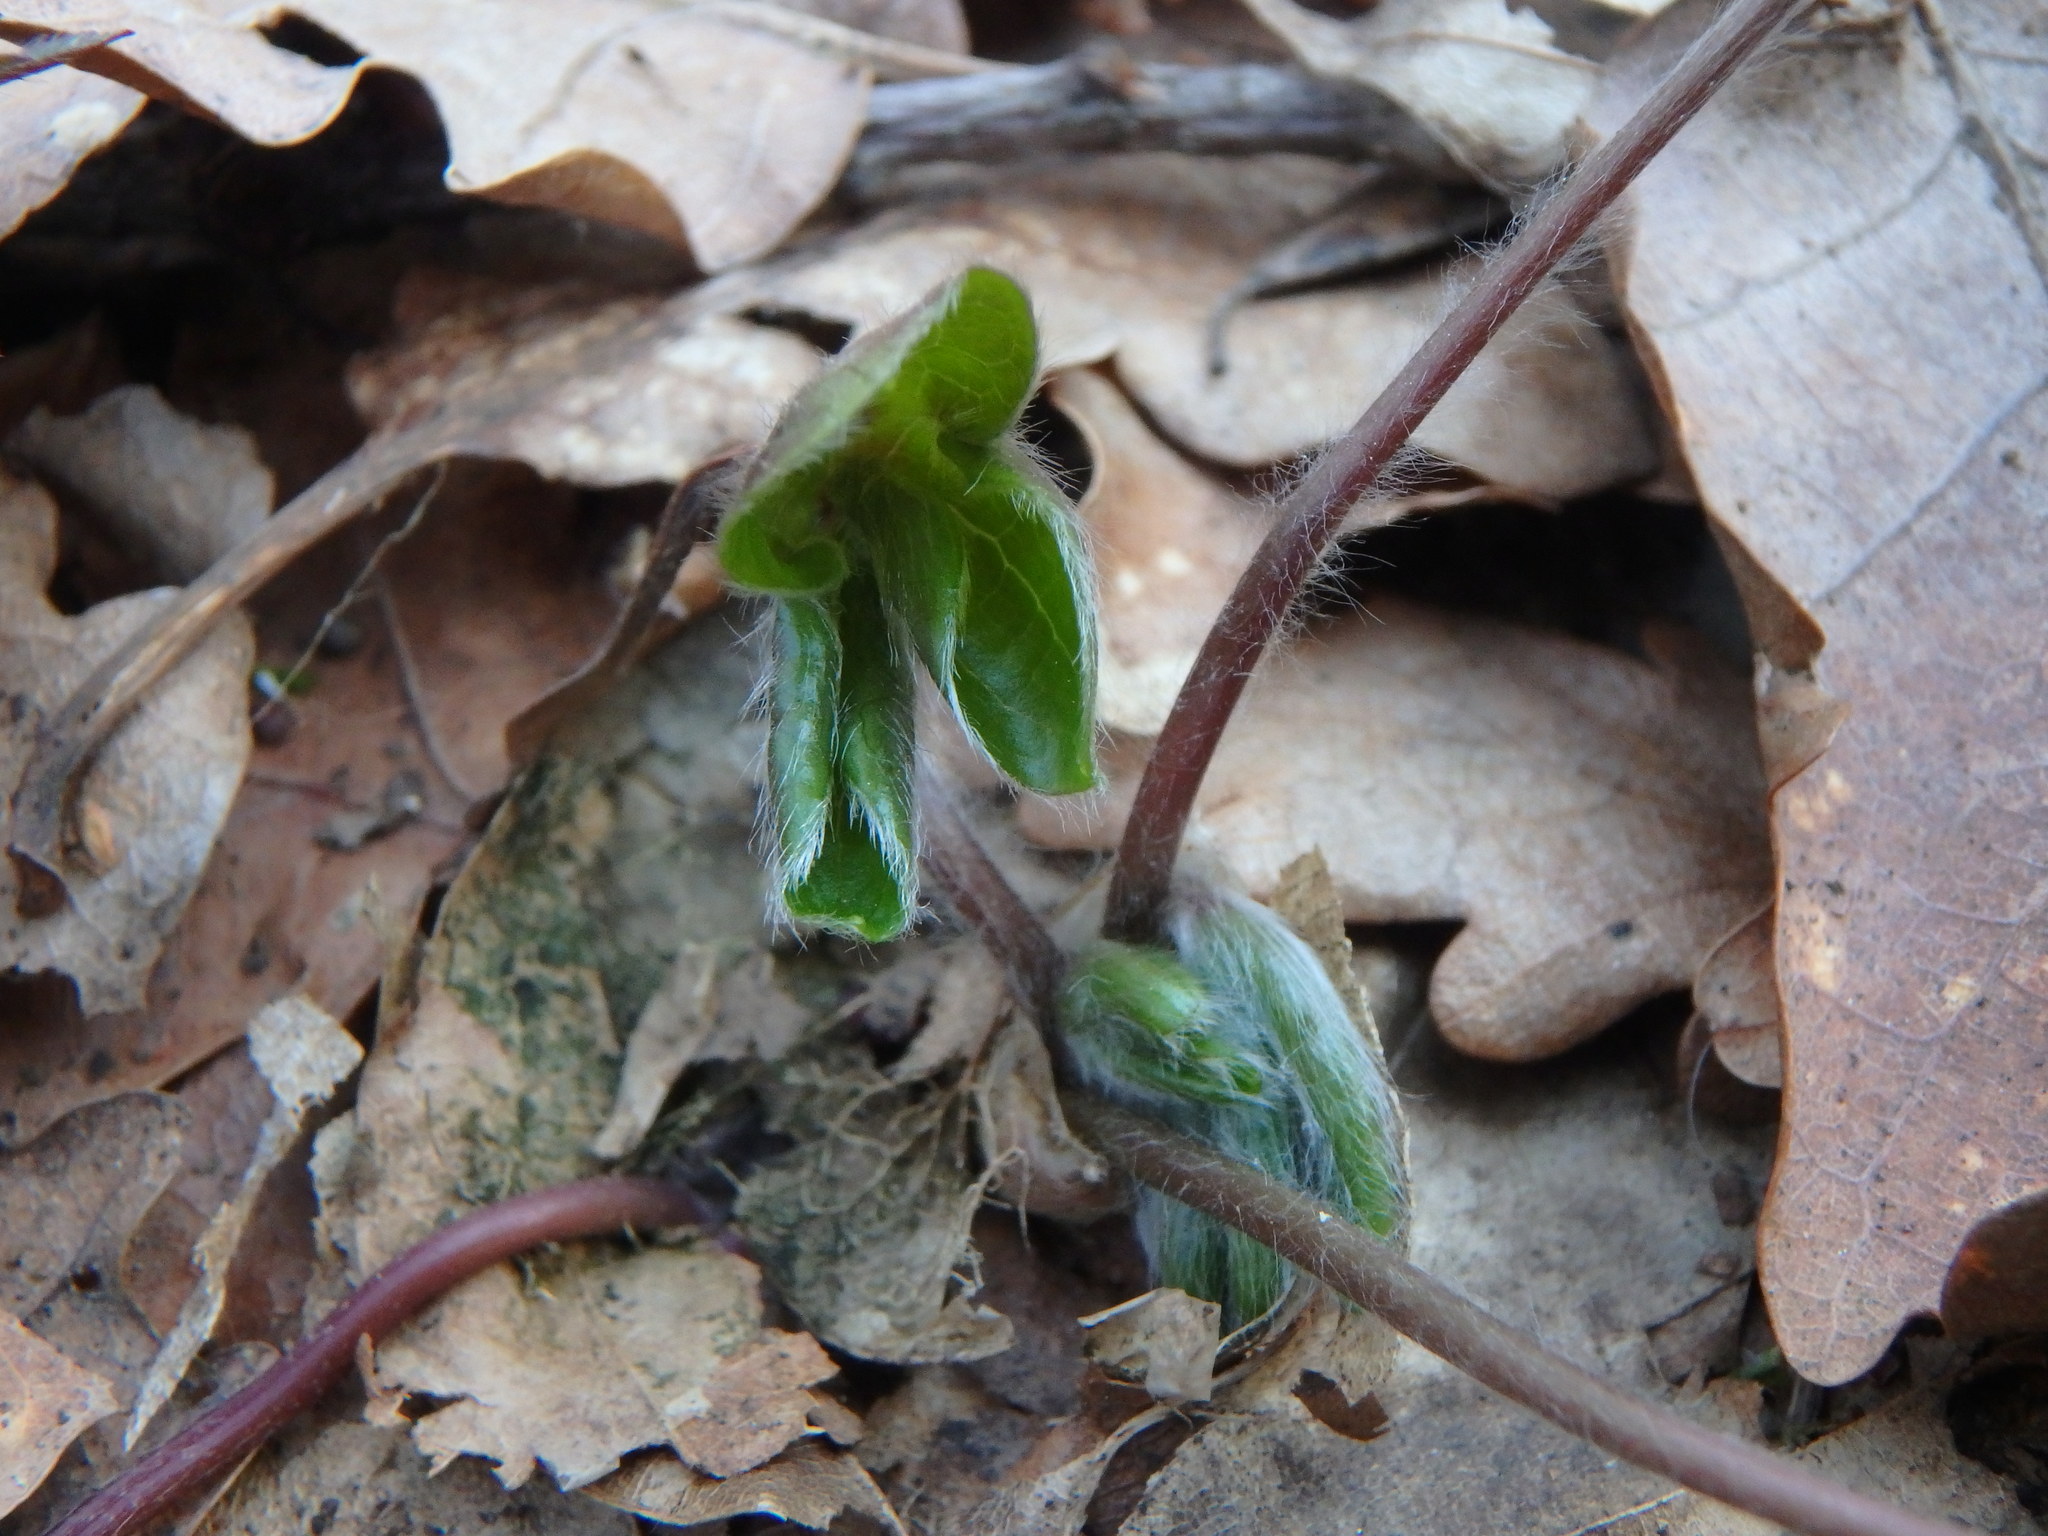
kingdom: Plantae
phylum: Tracheophyta
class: Magnoliopsida
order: Ranunculales
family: Ranunculaceae
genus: Hepatica
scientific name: Hepatica nobilis
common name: Liverleaf
